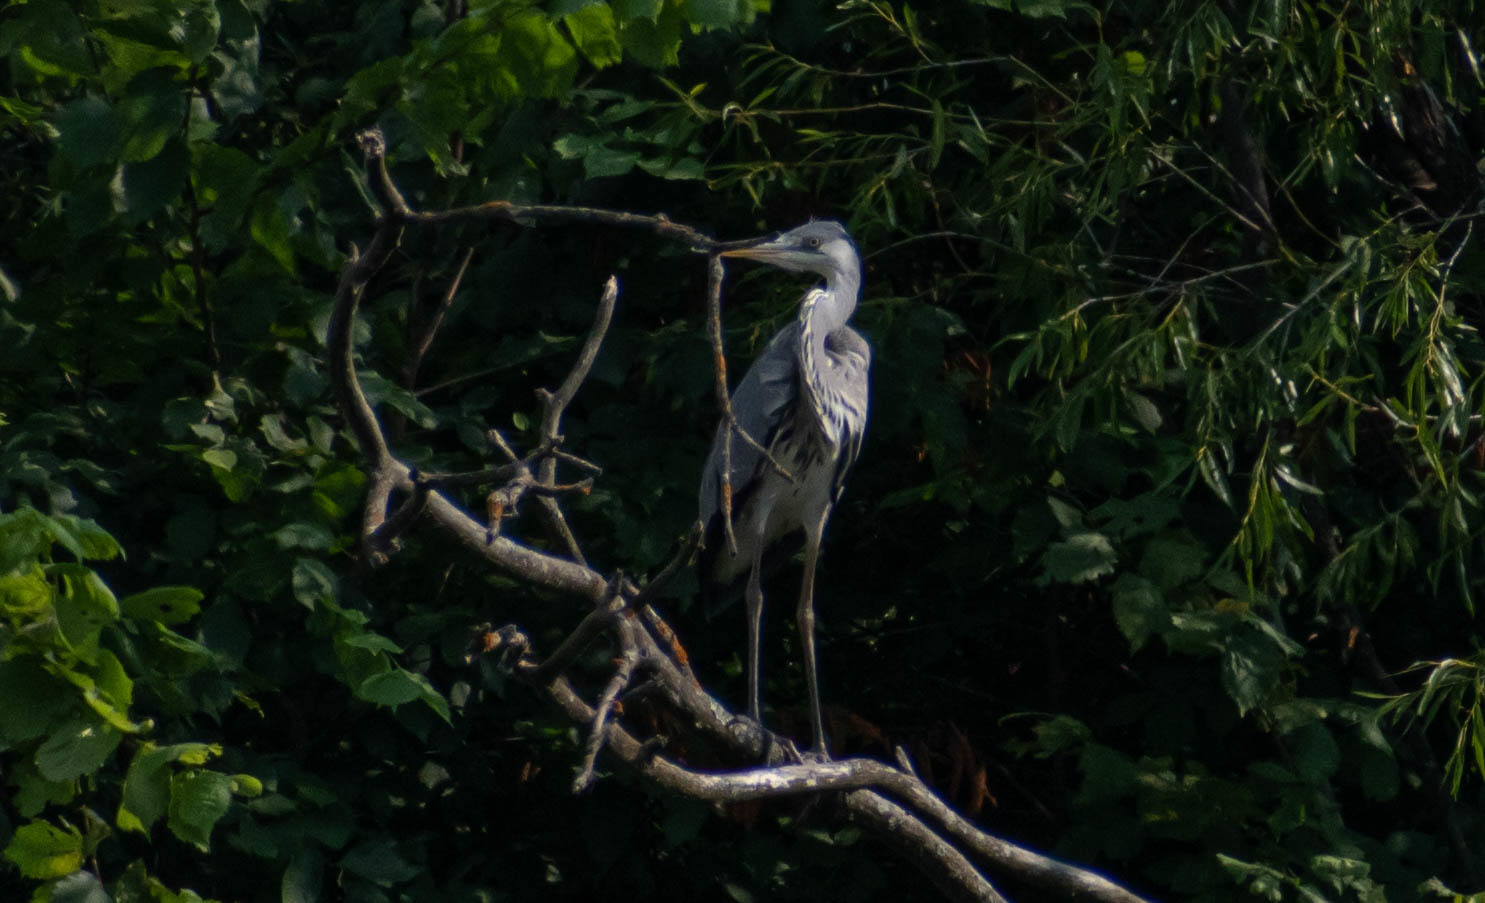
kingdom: Animalia
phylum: Chordata
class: Aves
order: Pelecaniformes
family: Ardeidae
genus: Ardea
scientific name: Ardea cinerea
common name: Grey heron
